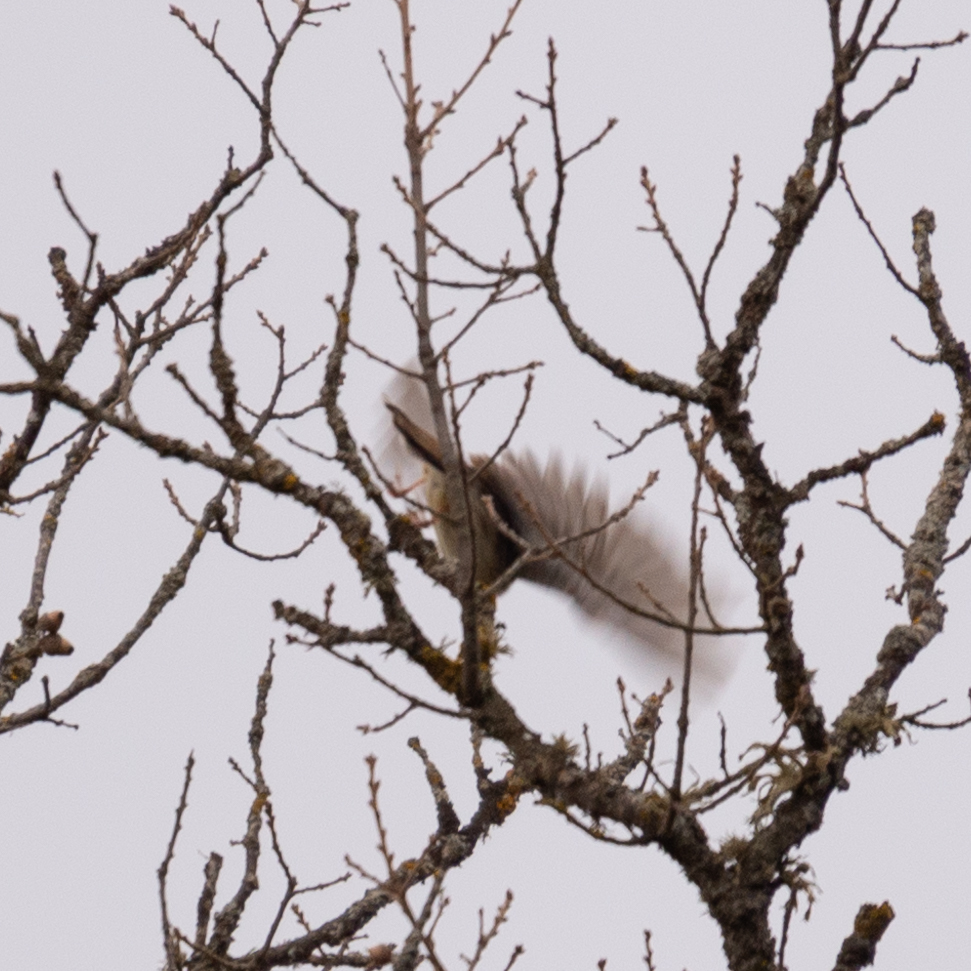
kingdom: Animalia
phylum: Chordata
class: Aves
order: Passeriformes
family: Alaudidae
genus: Lullula
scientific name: Lullula arborea
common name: Woodlark
